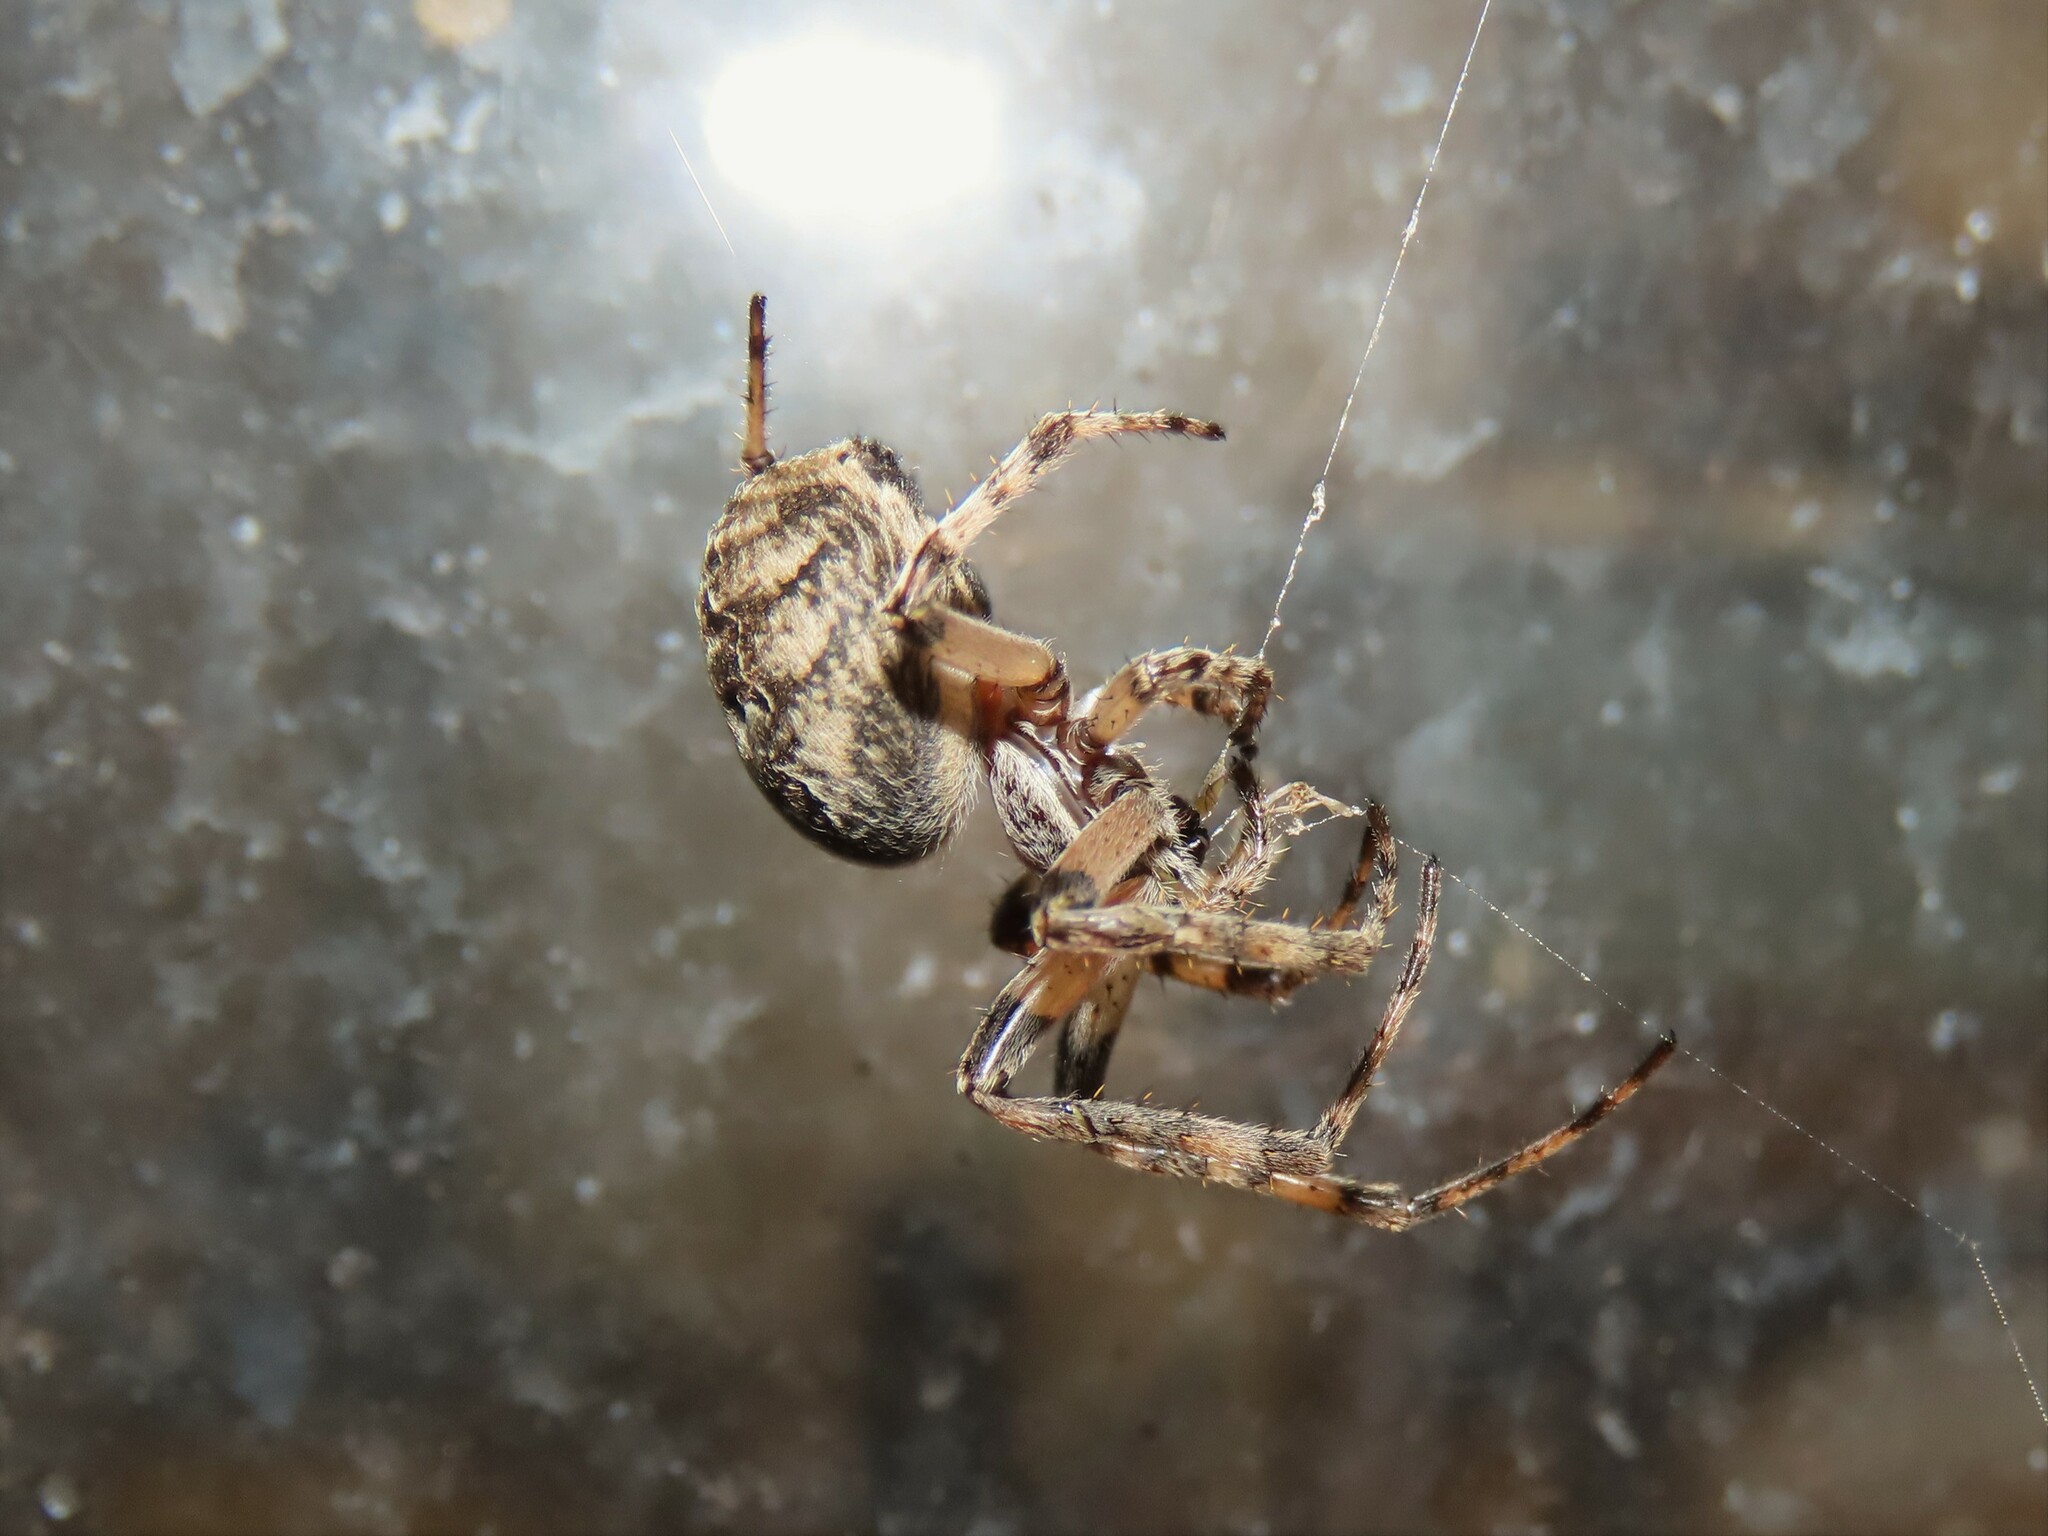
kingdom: Animalia
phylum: Arthropoda
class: Arachnida
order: Araneae
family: Araneidae
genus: Larinioides
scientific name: Larinioides cornutus
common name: Furrow orbweaver
